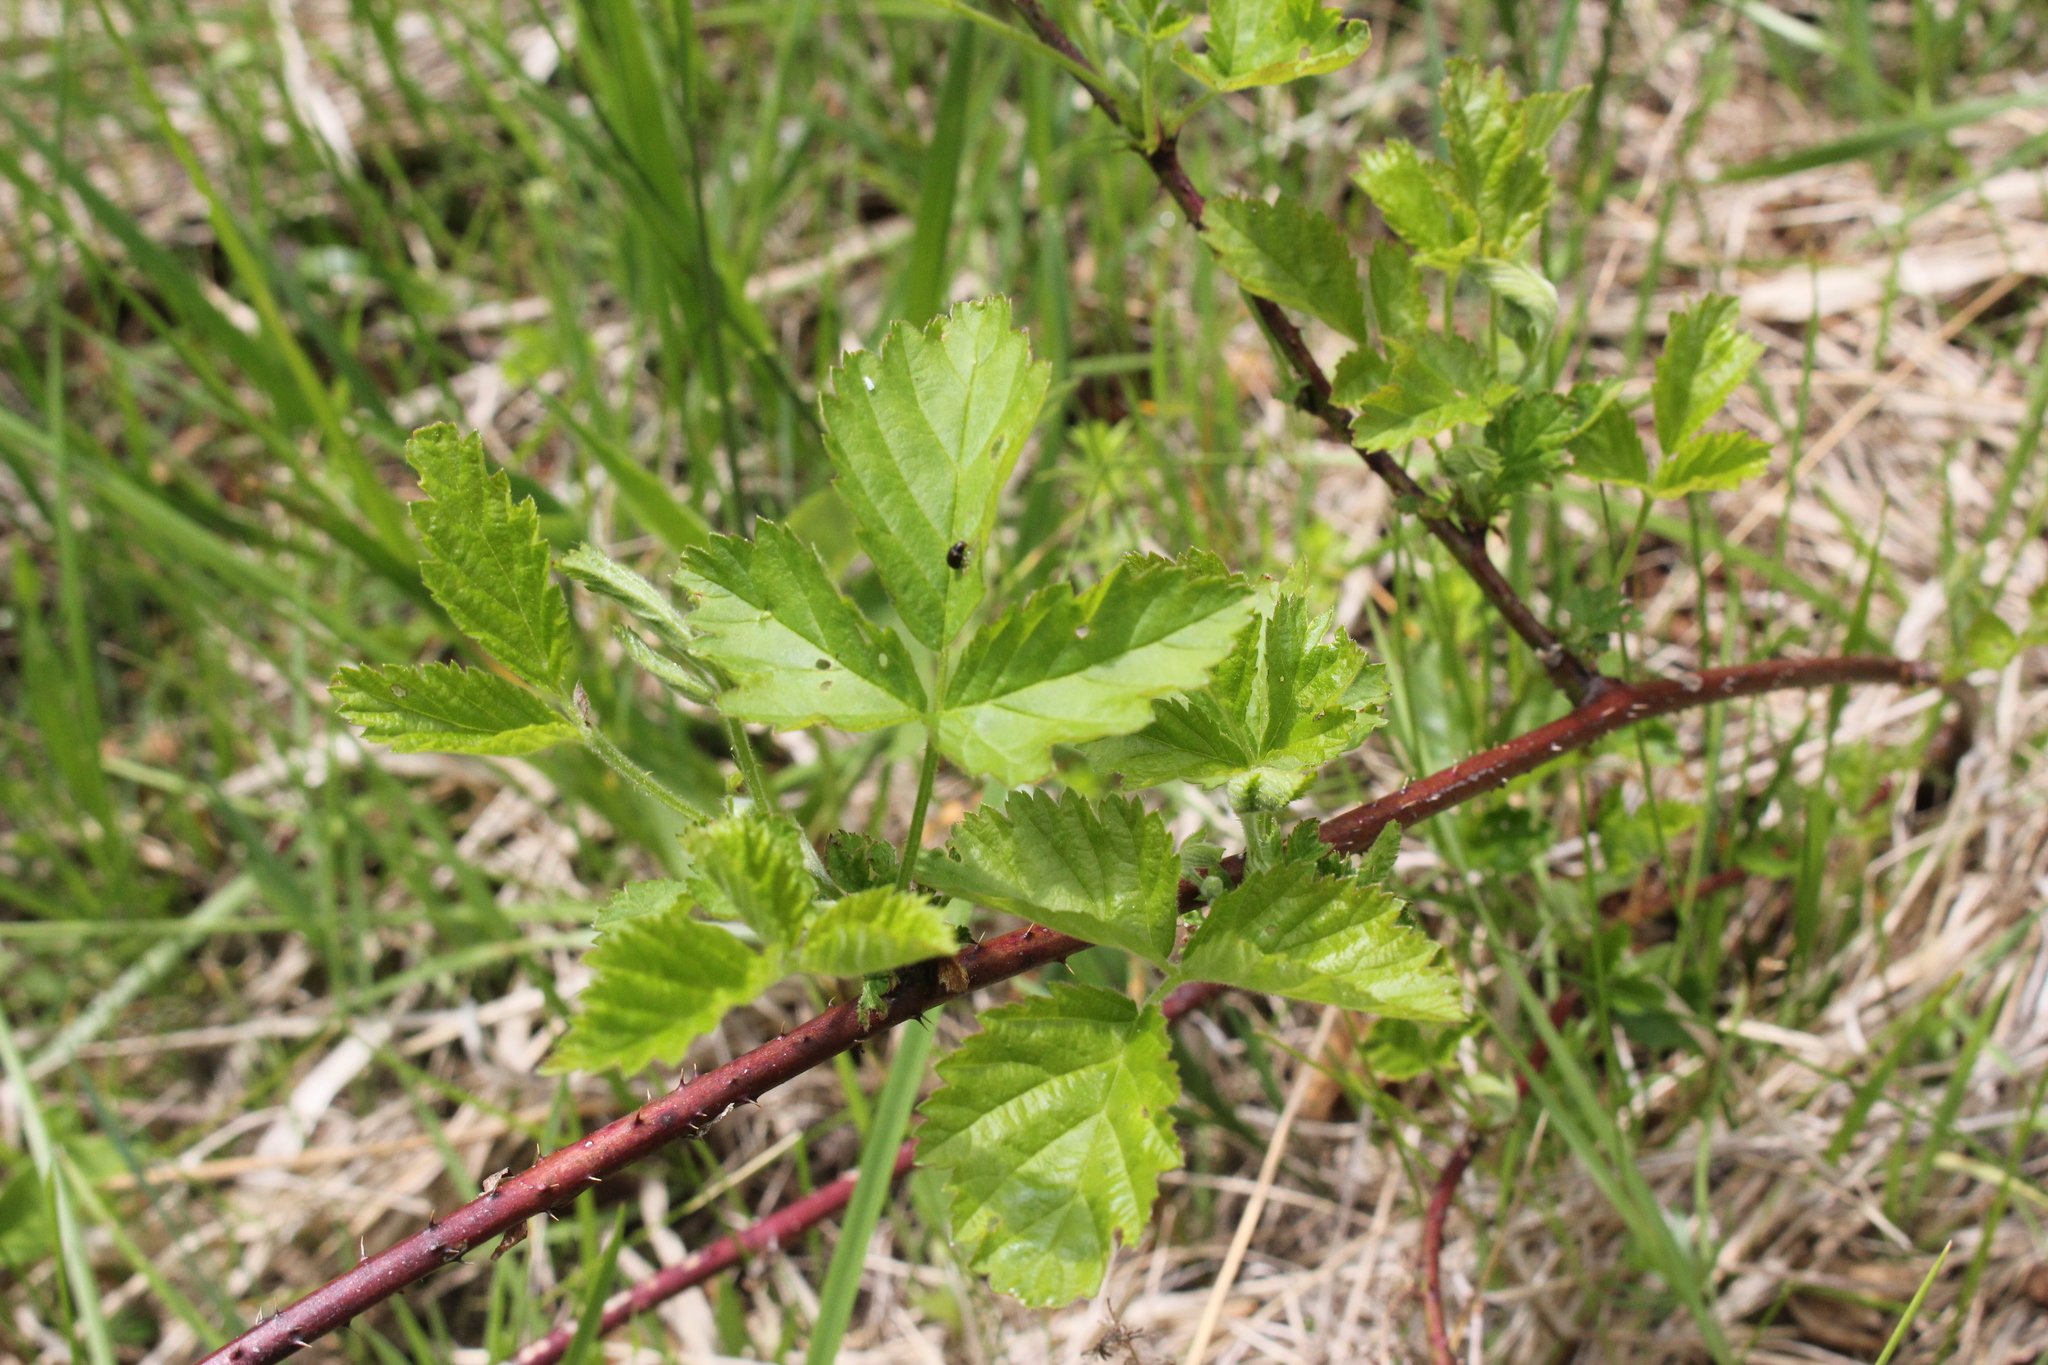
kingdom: Plantae
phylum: Tracheophyta
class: Magnoliopsida
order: Rosales
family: Rosaceae
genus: Rubus
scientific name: Rubus setosus
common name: Bristly blackberry
